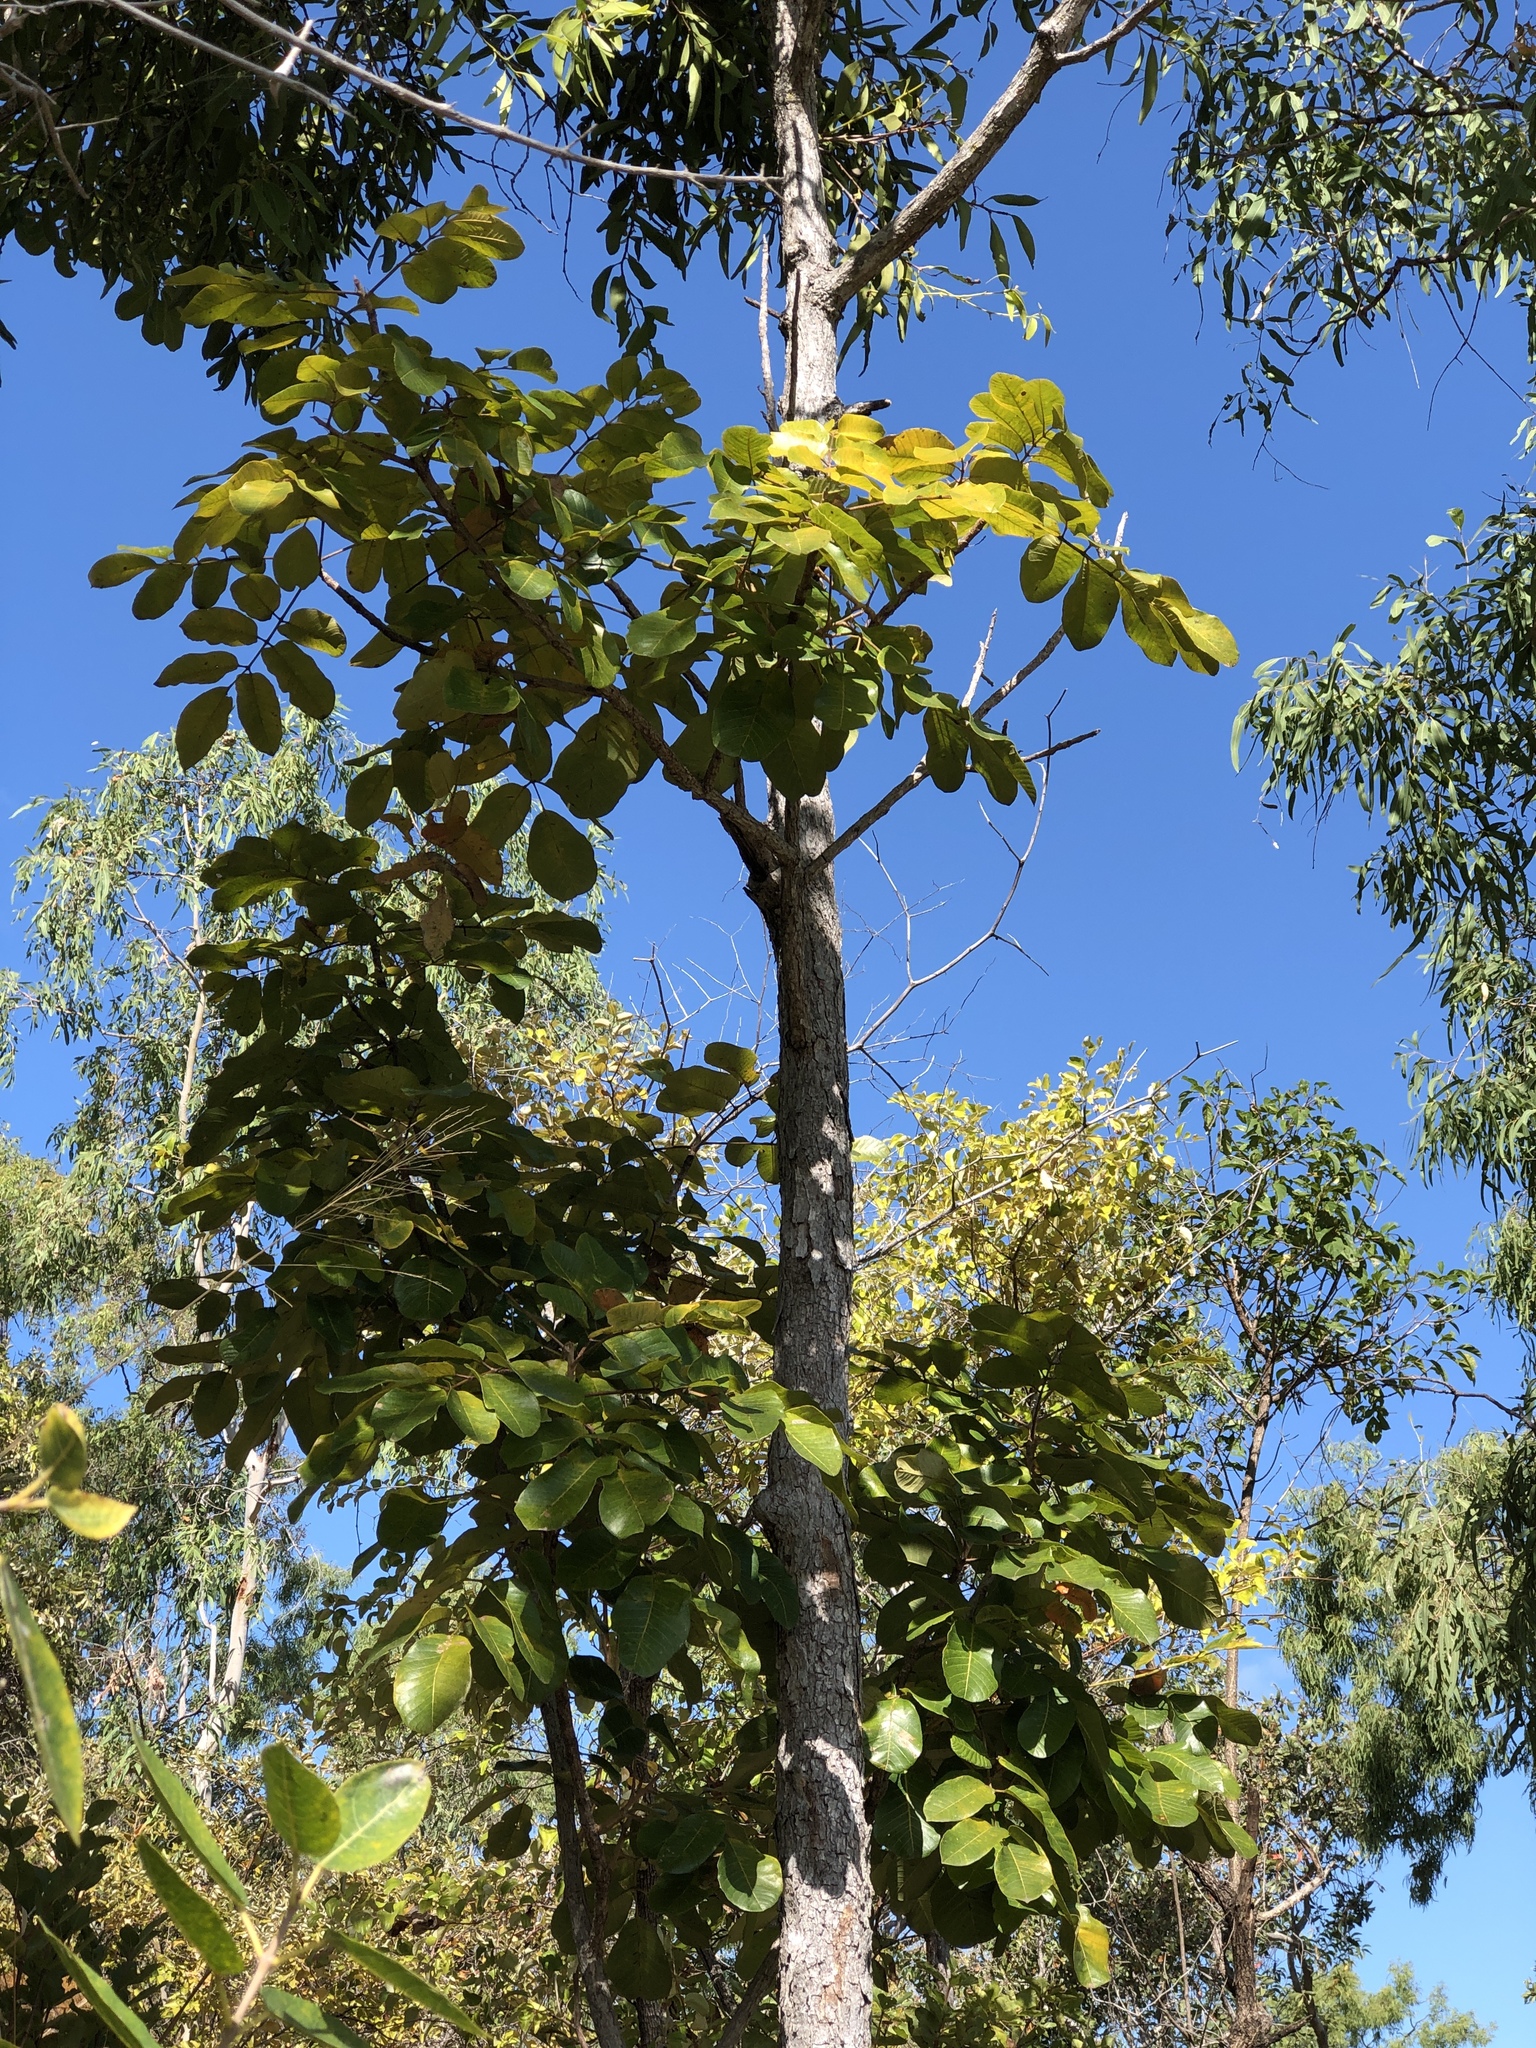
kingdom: Plantae
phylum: Tracheophyta
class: Magnoliopsida
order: Sapindales
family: Burseraceae
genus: Canarium
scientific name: Canarium australianum
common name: Island white-beech
